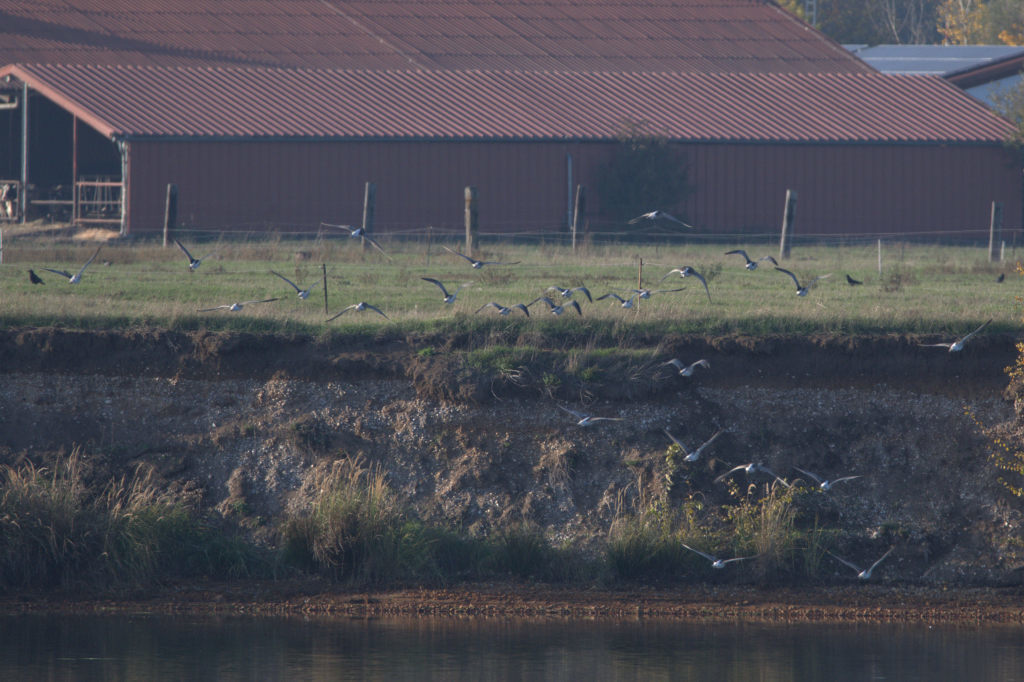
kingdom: Animalia
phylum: Chordata
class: Aves
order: Charadriiformes
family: Scolopacidae
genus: Numenius
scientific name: Numenius arquata
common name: Eurasian curlew
